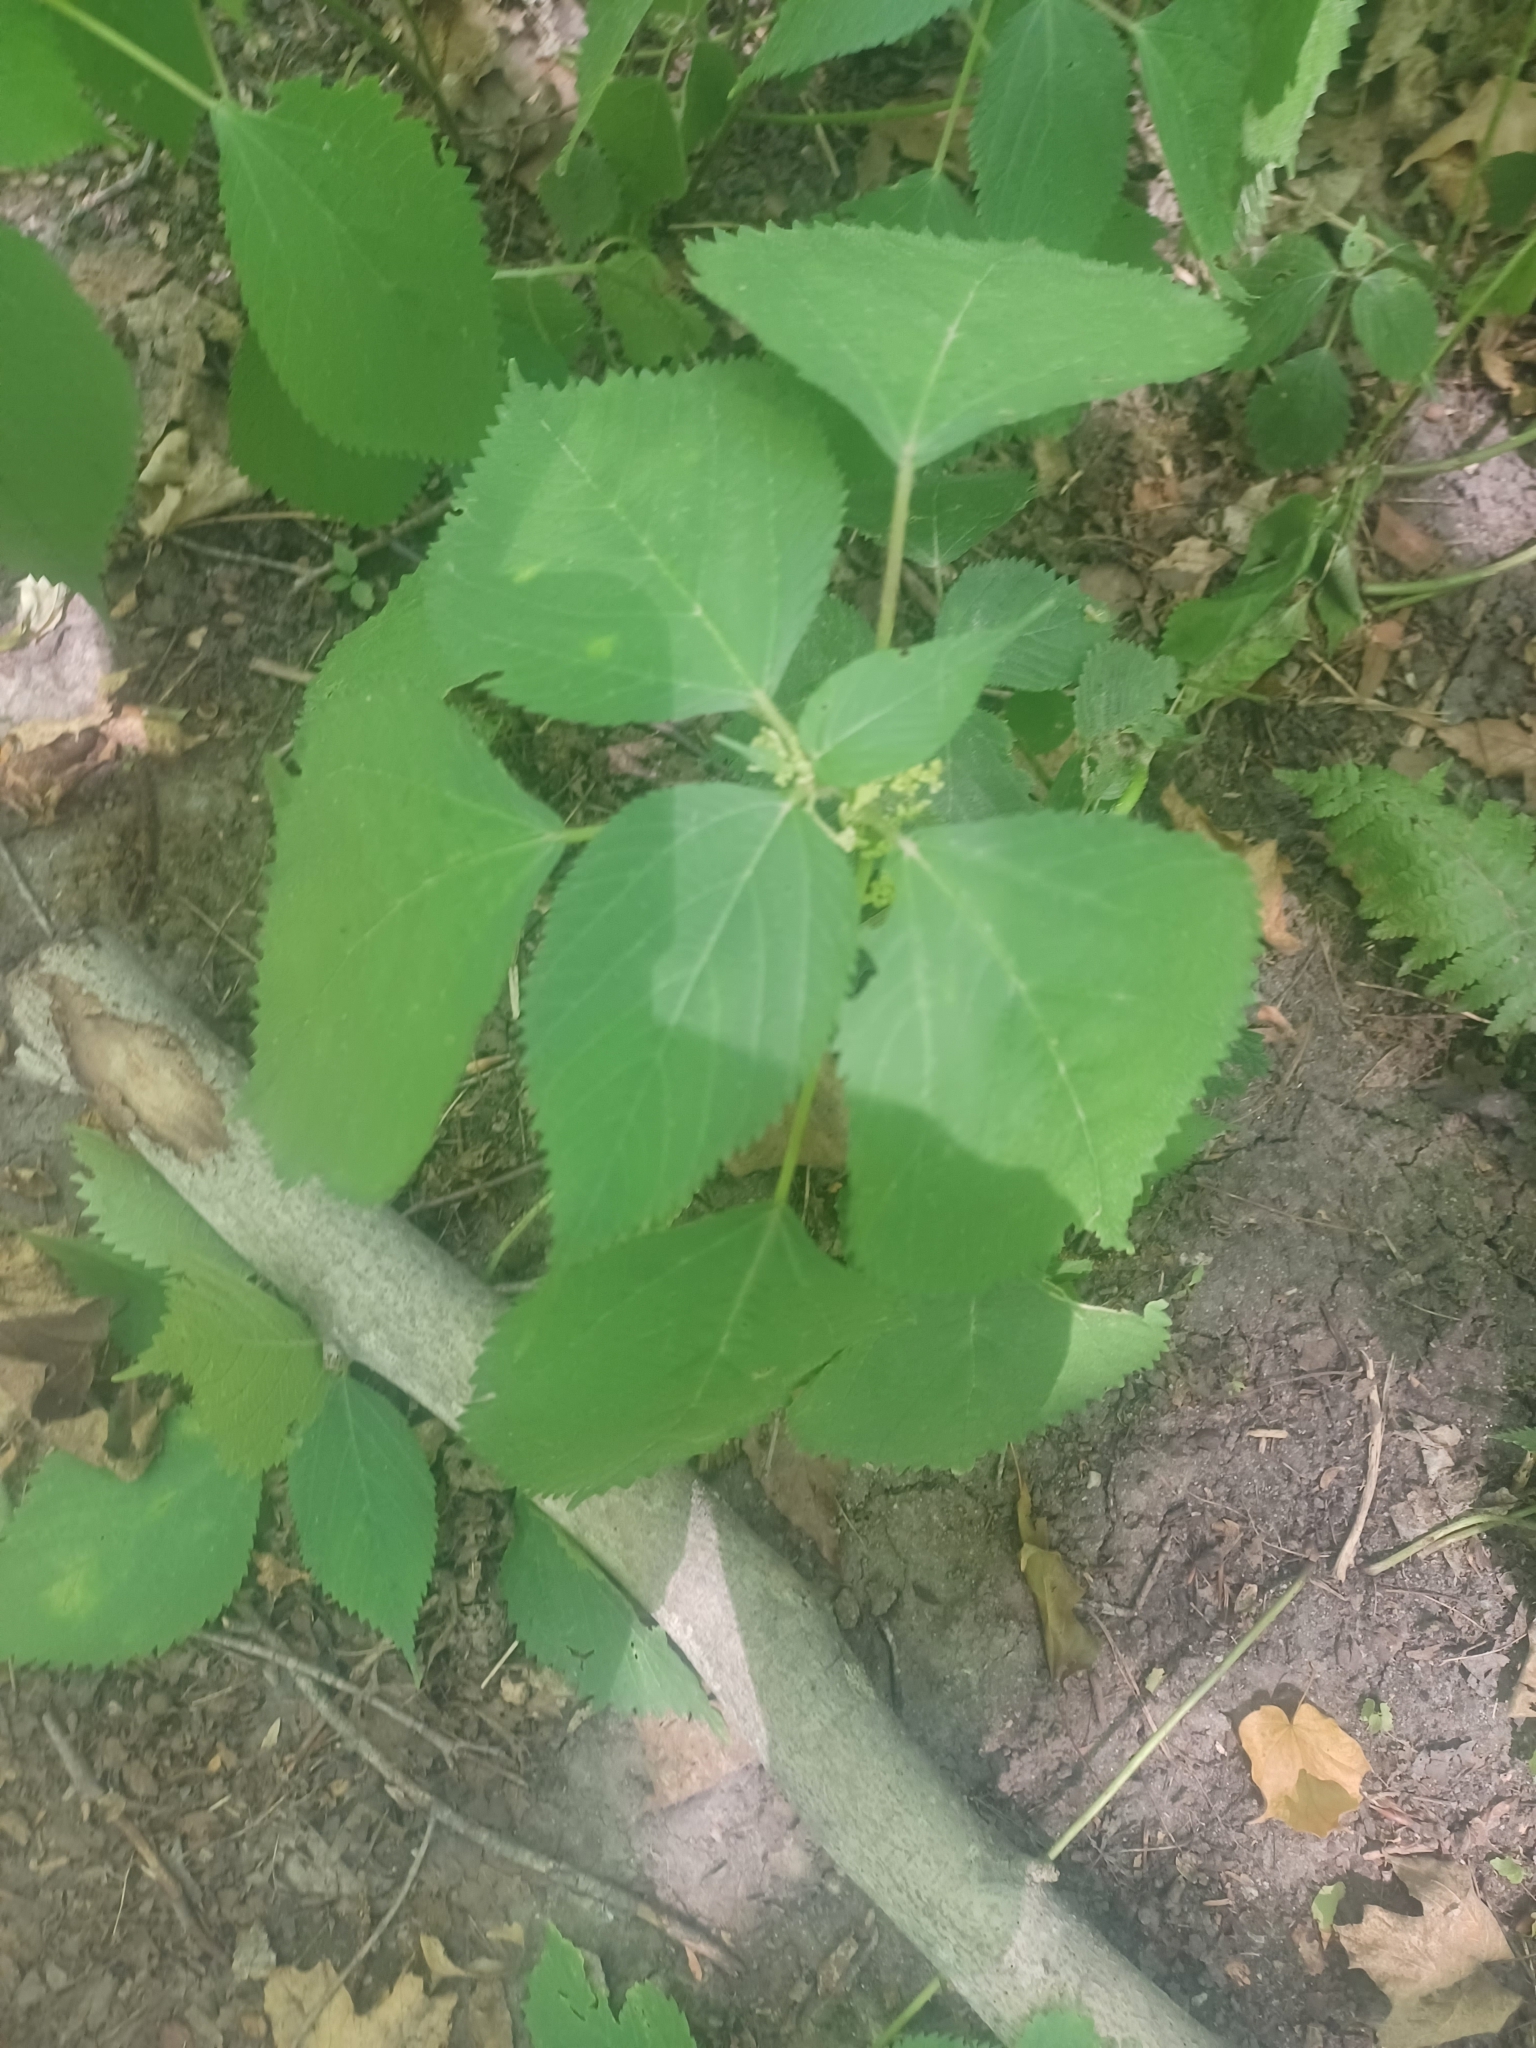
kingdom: Plantae
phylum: Tracheophyta
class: Magnoliopsida
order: Rosales
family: Urticaceae
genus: Laportea
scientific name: Laportea canadensis
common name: Canada nettle
